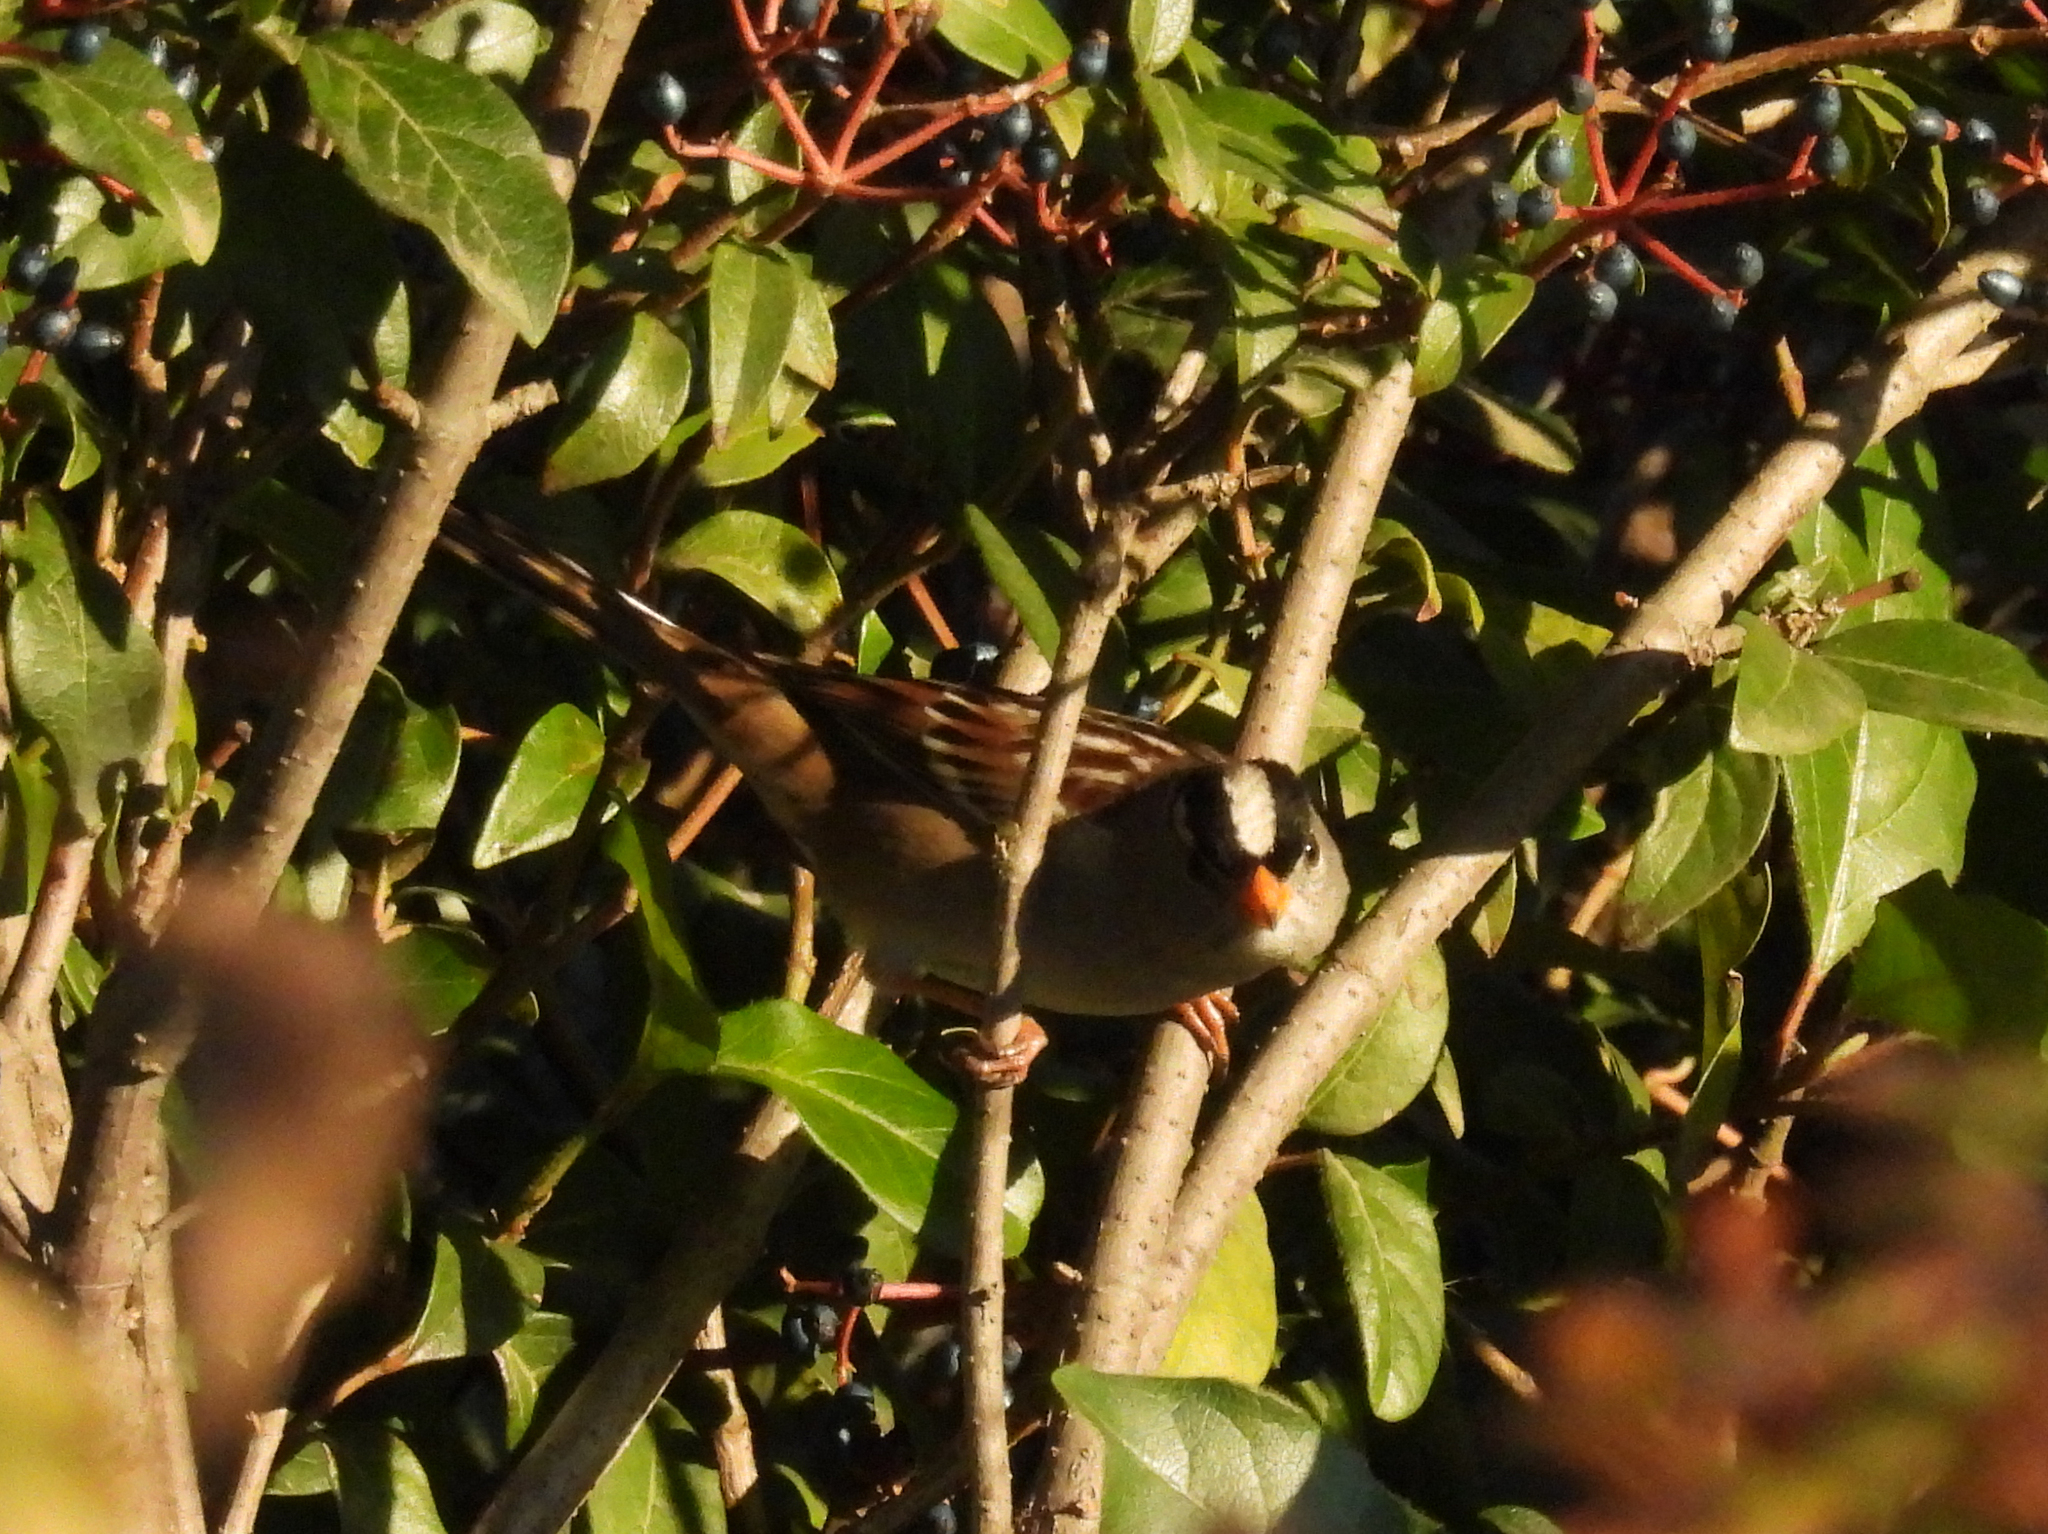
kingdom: Animalia
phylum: Chordata
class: Aves
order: Passeriformes
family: Passerellidae
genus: Zonotrichia
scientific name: Zonotrichia leucophrys
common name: White-crowned sparrow
